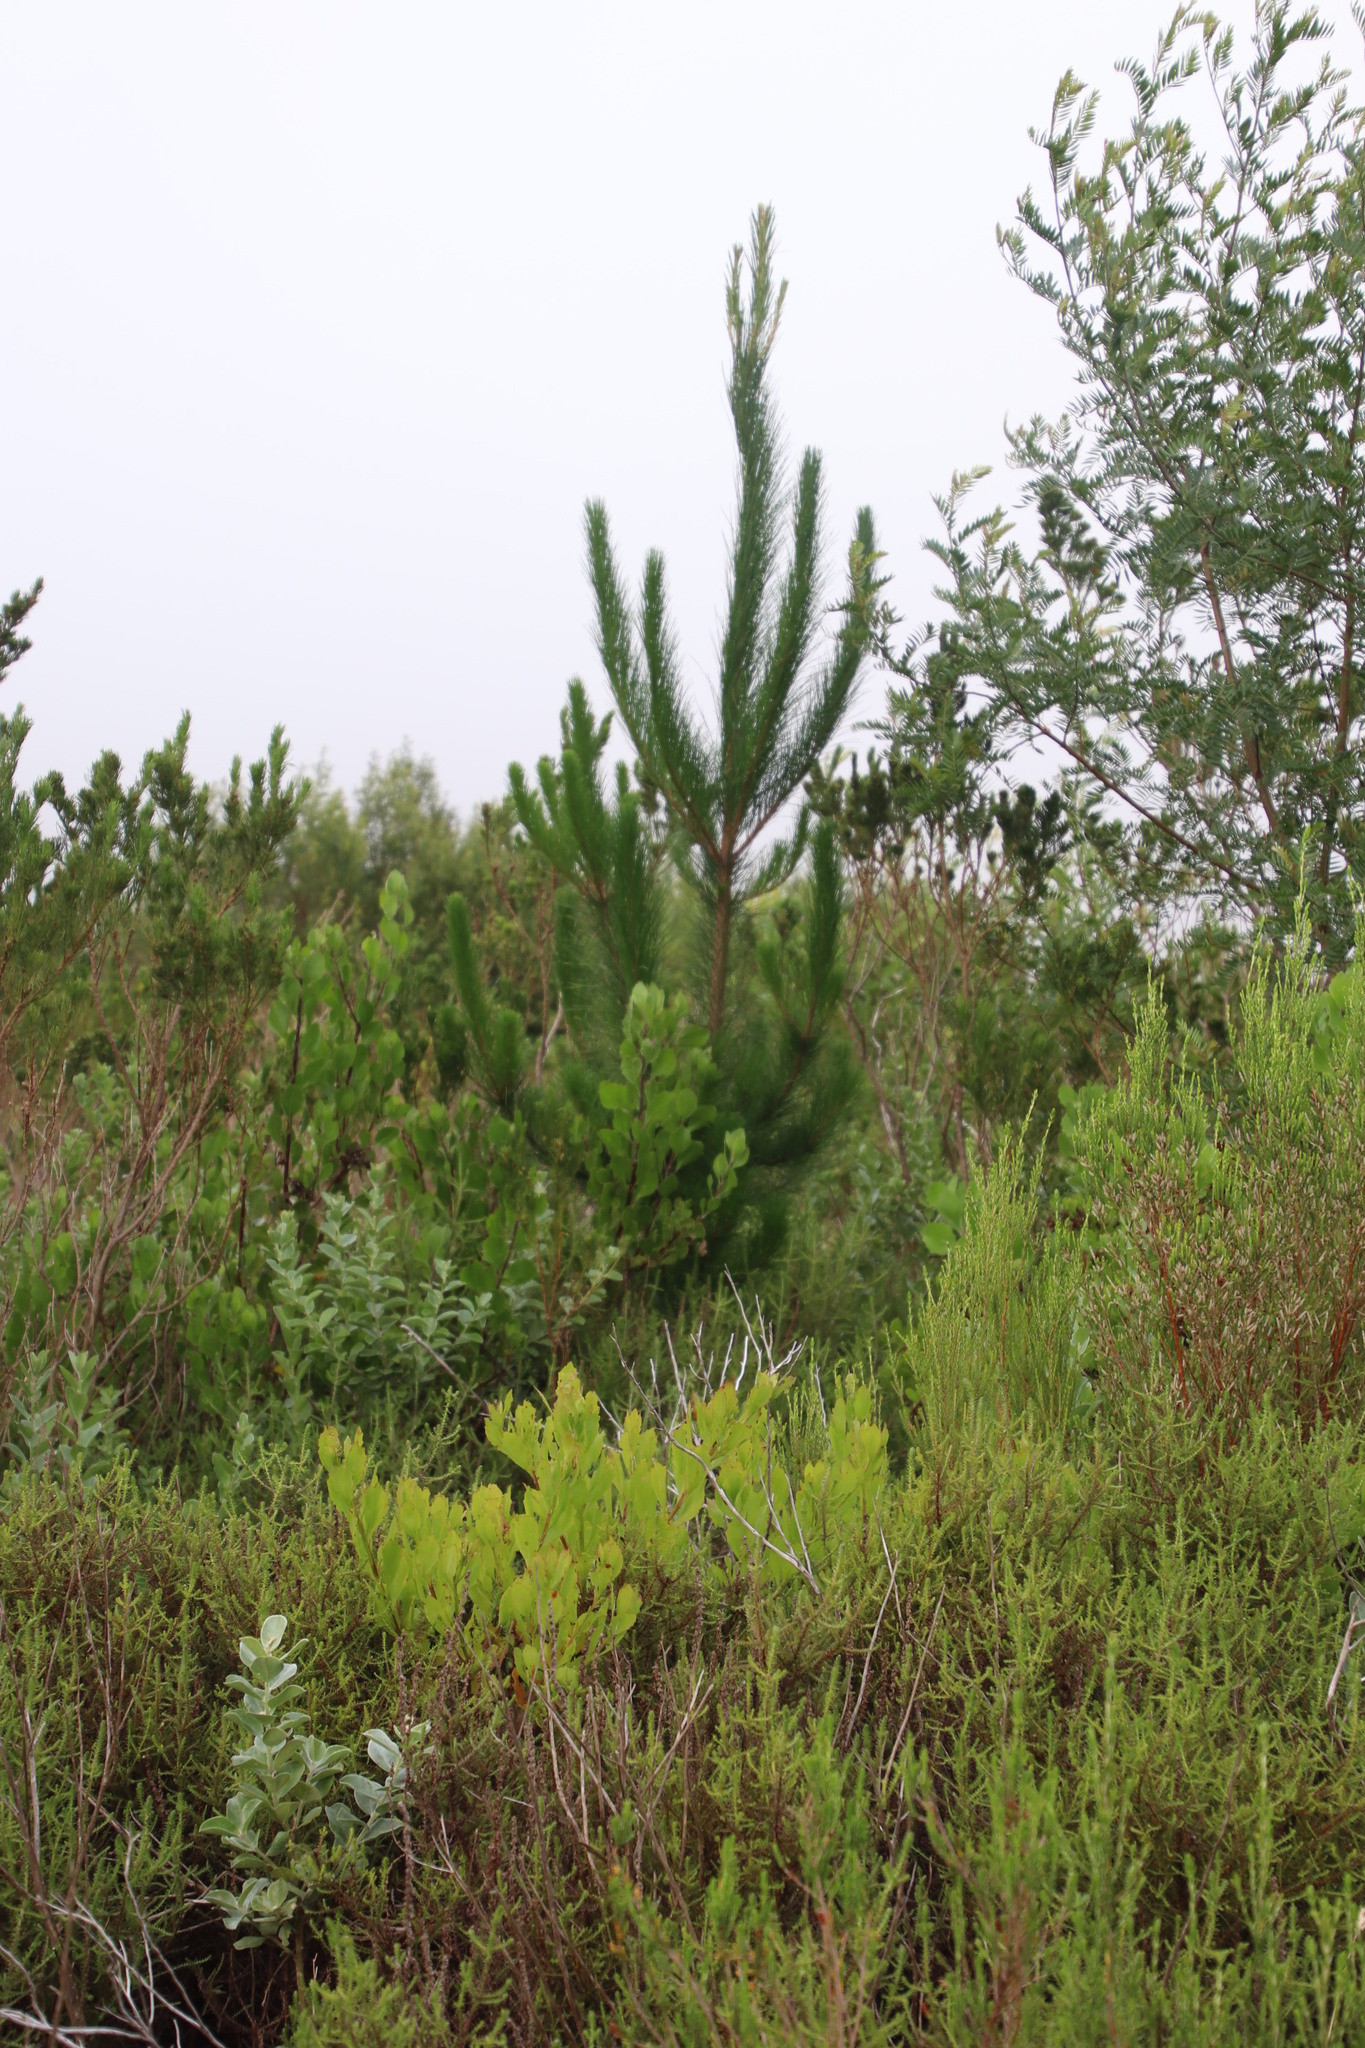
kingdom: Plantae
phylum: Tracheophyta
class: Pinopsida
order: Pinales
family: Pinaceae
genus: Pinus
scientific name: Pinus radiata
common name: Monterey pine
